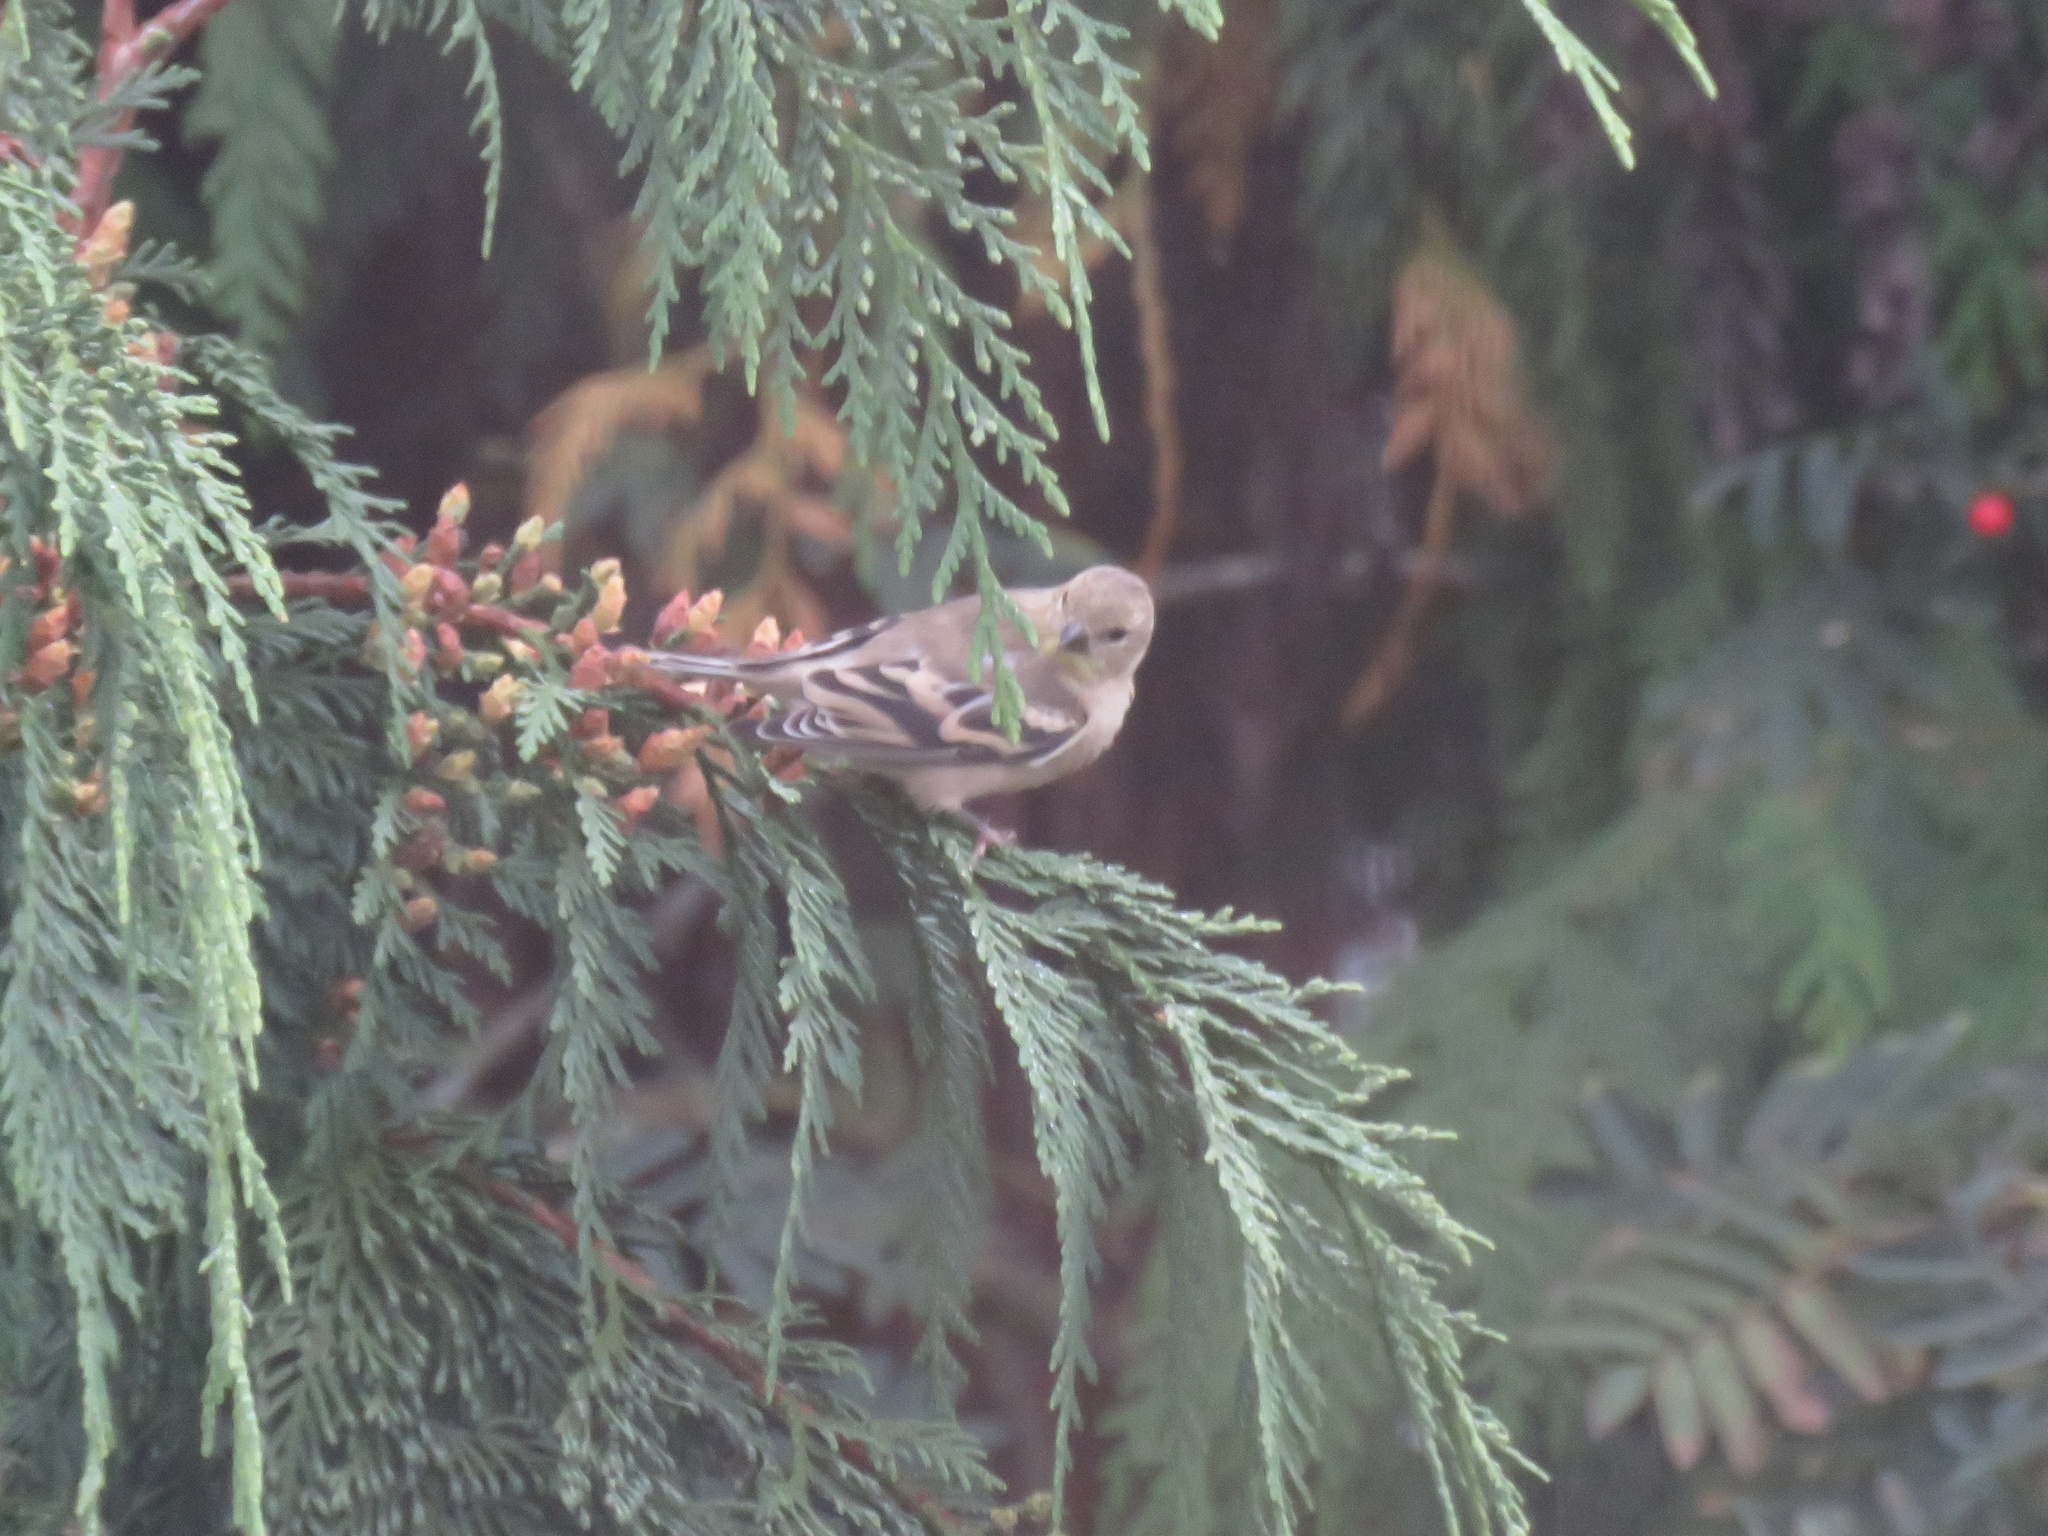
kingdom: Animalia
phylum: Chordata
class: Aves
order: Passeriformes
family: Fringillidae
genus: Spinus
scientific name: Spinus tristis
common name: American goldfinch
